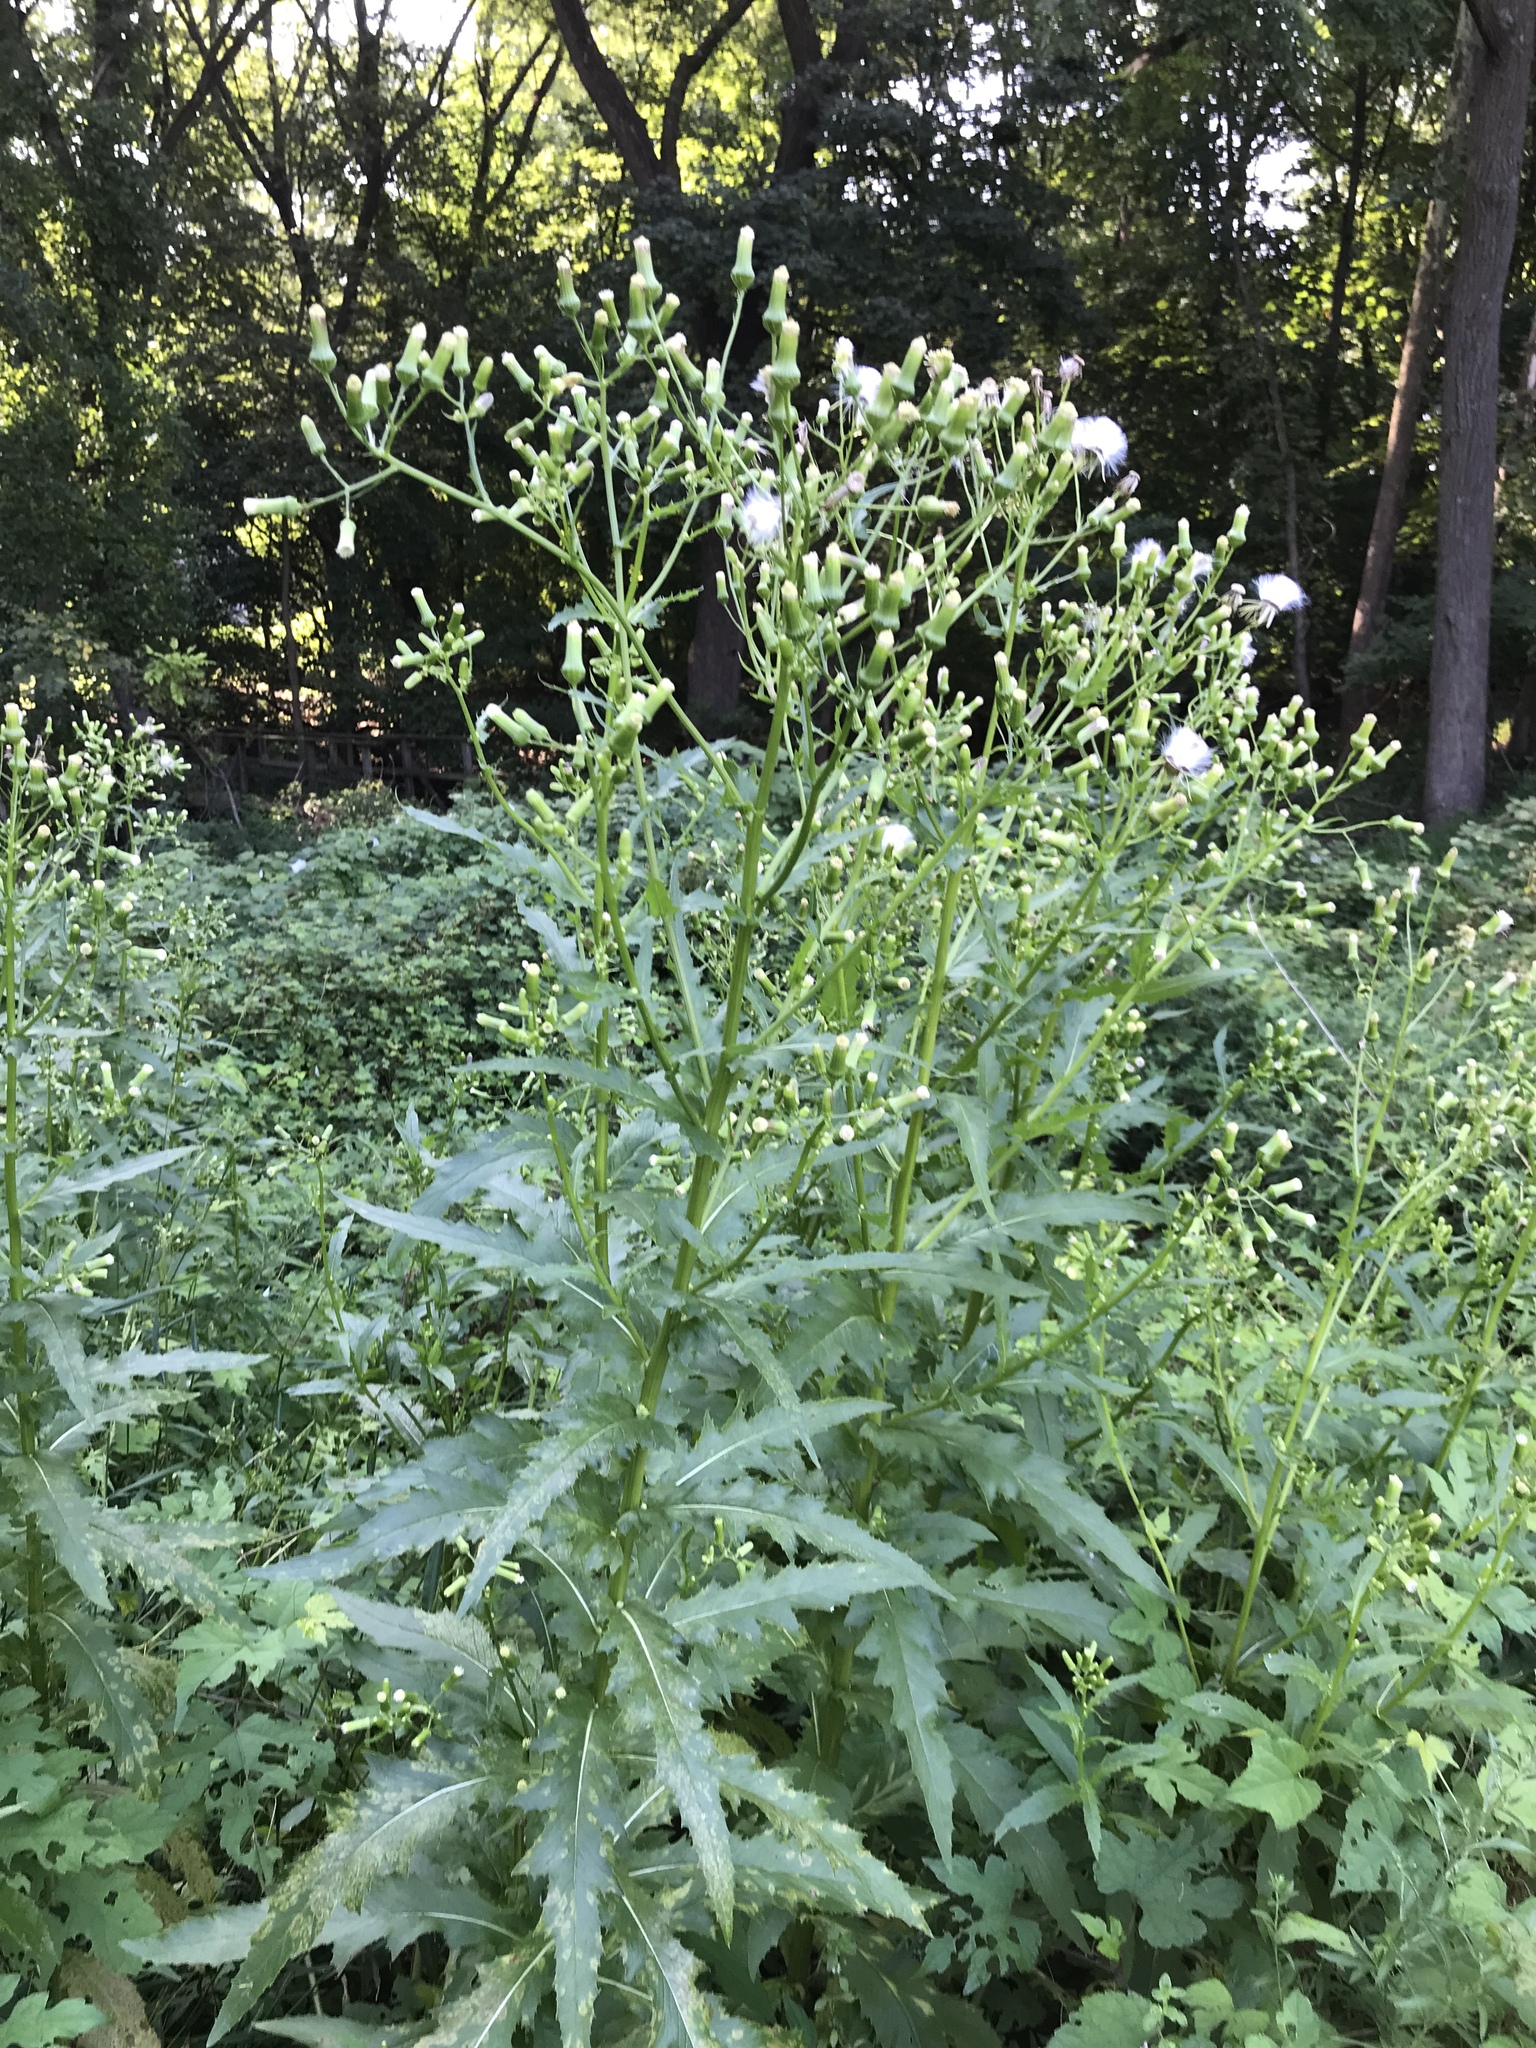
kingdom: Plantae
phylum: Tracheophyta
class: Magnoliopsida
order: Asterales
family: Asteraceae
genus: Erechtites
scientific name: Erechtites hieraciifolius
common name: American burnweed
